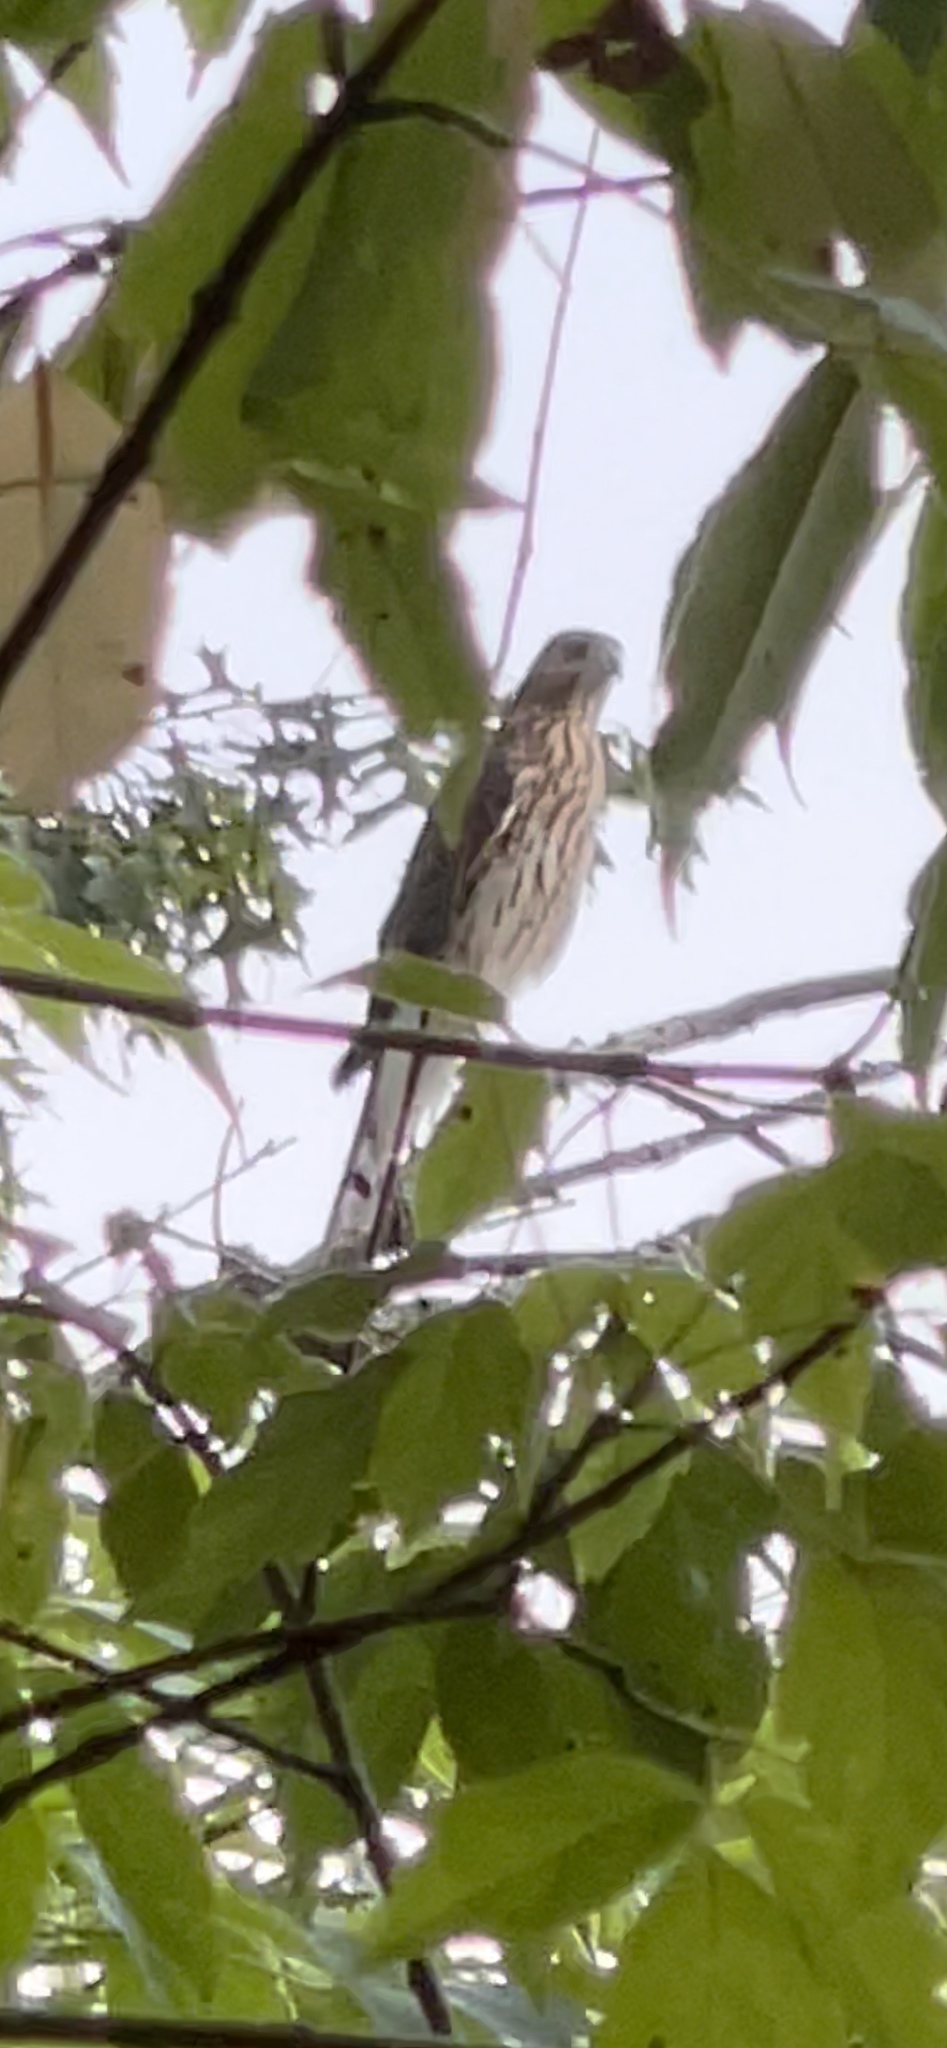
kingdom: Animalia
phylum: Chordata
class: Aves
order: Accipitriformes
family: Accipitridae
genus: Accipiter
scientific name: Accipiter cooperii
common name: Cooper's hawk
